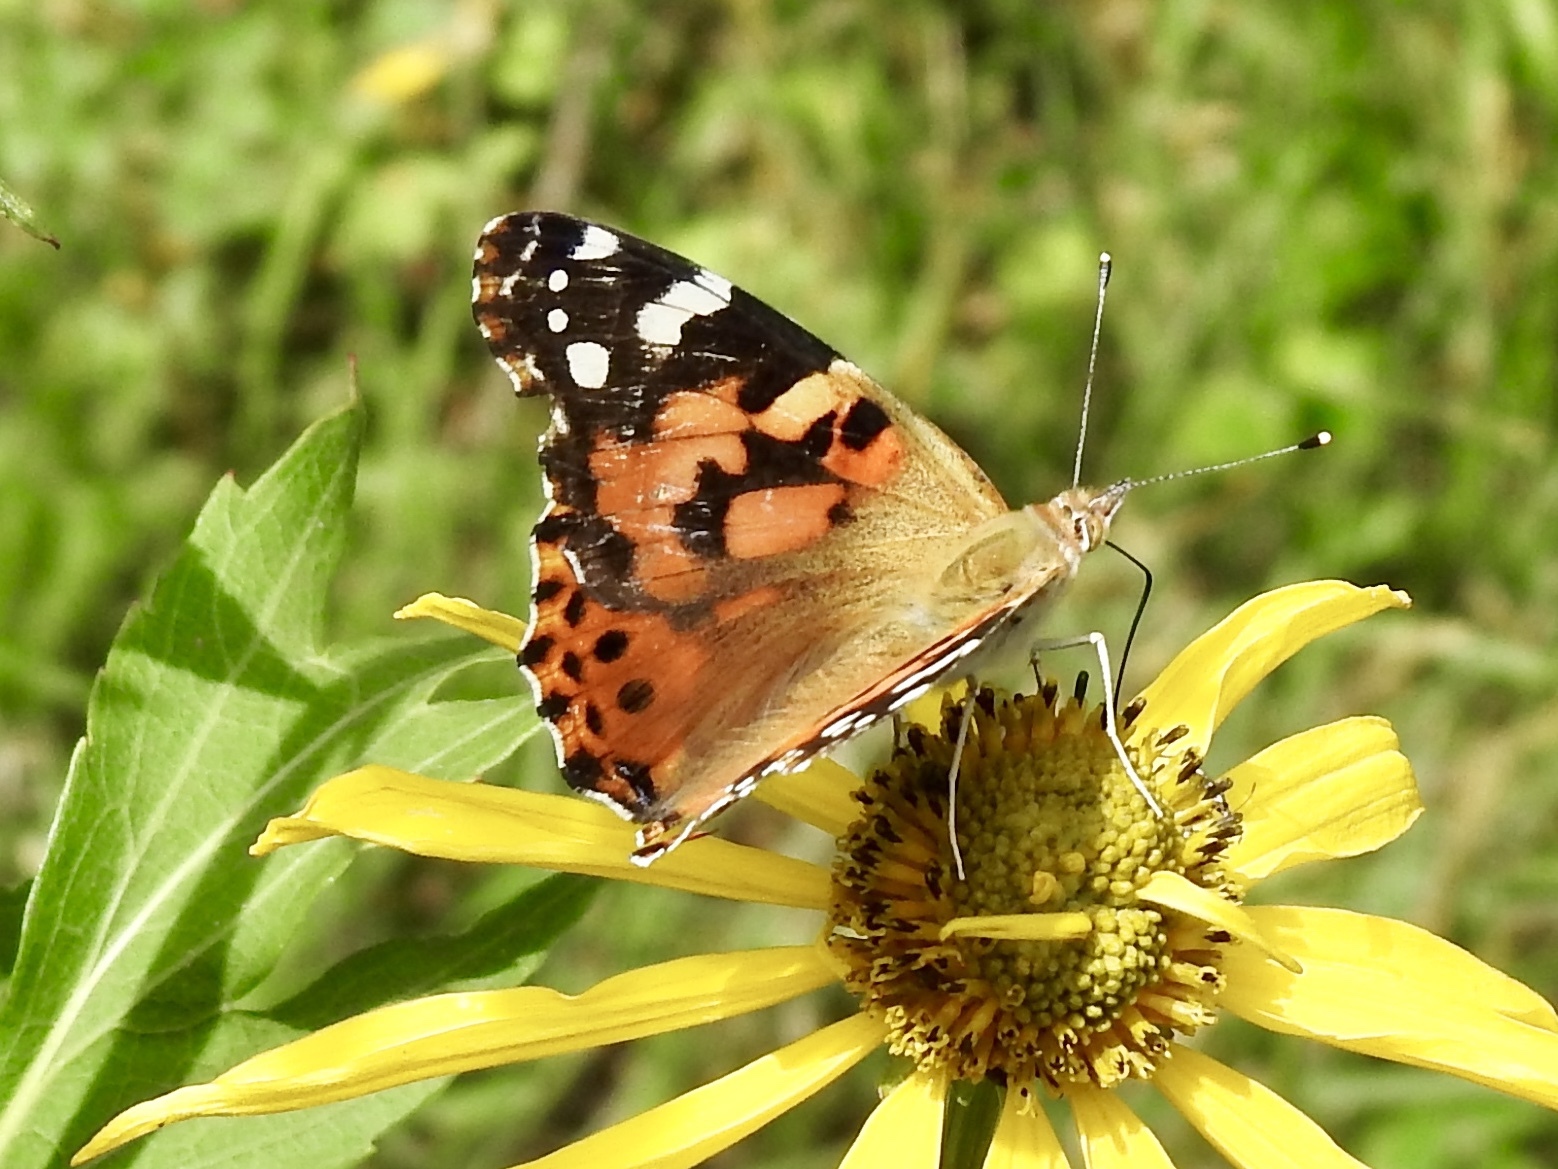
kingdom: Animalia
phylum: Arthropoda
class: Insecta
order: Lepidoptera
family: Nymphalidae
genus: Vanessa
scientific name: Vanessa cardui
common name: Painted lady
